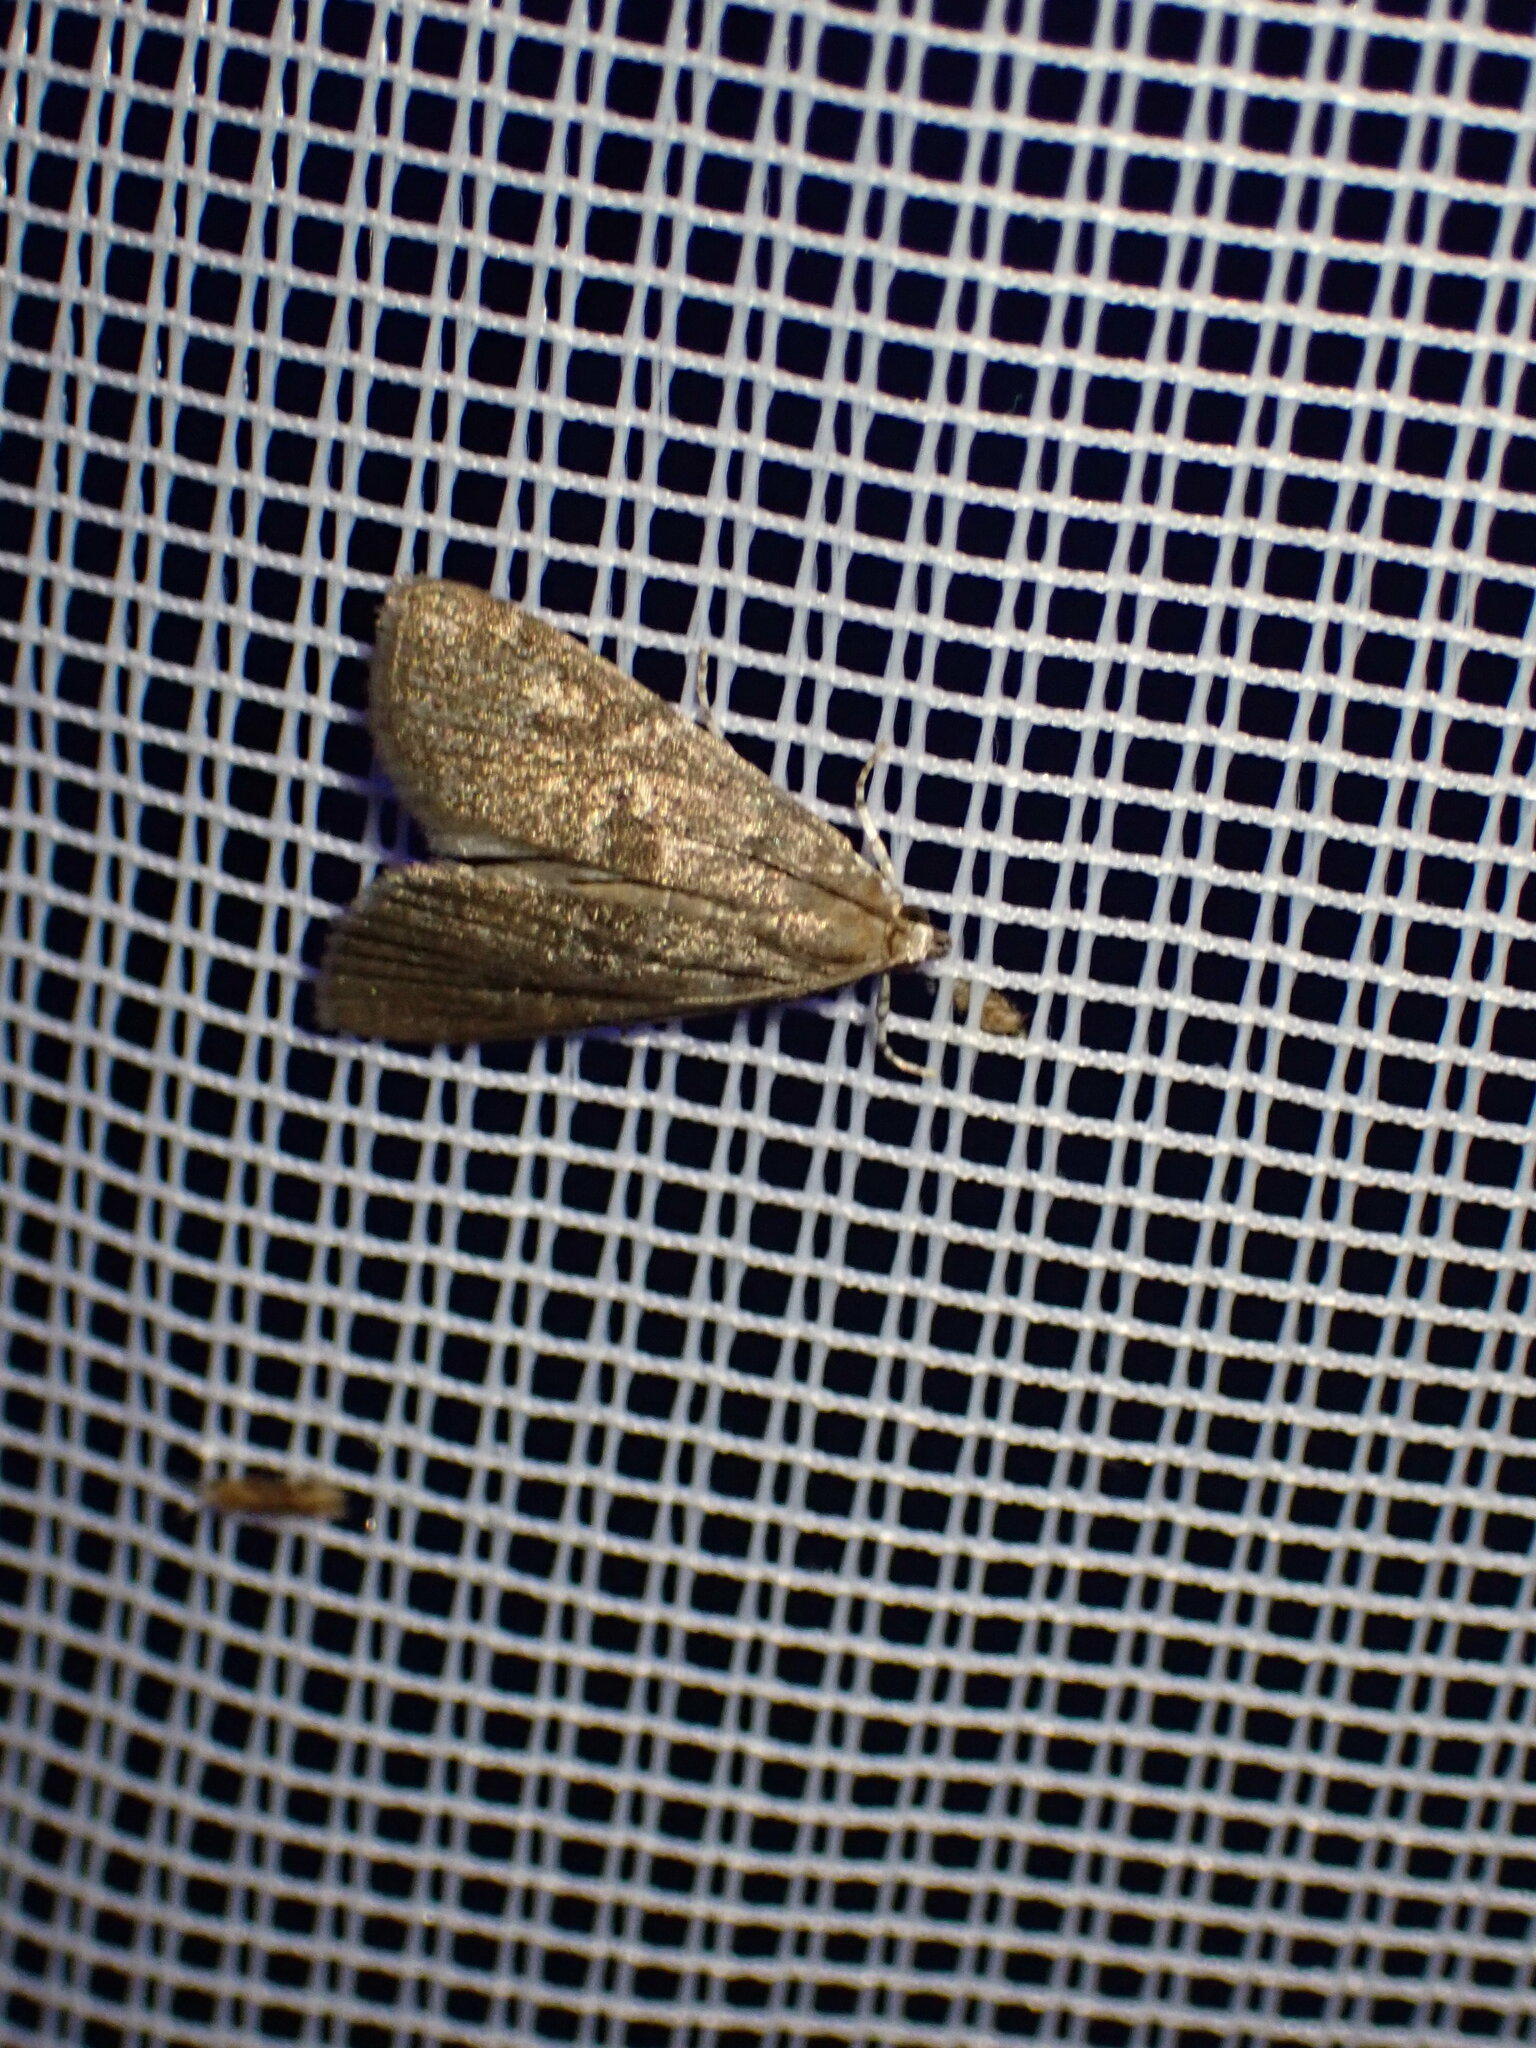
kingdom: Animalia
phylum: Arthropoda
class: Insecta
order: Lepidoptera
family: Crambidae
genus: Elophila
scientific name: Elophila gyralis
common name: Waterlily borer moth
